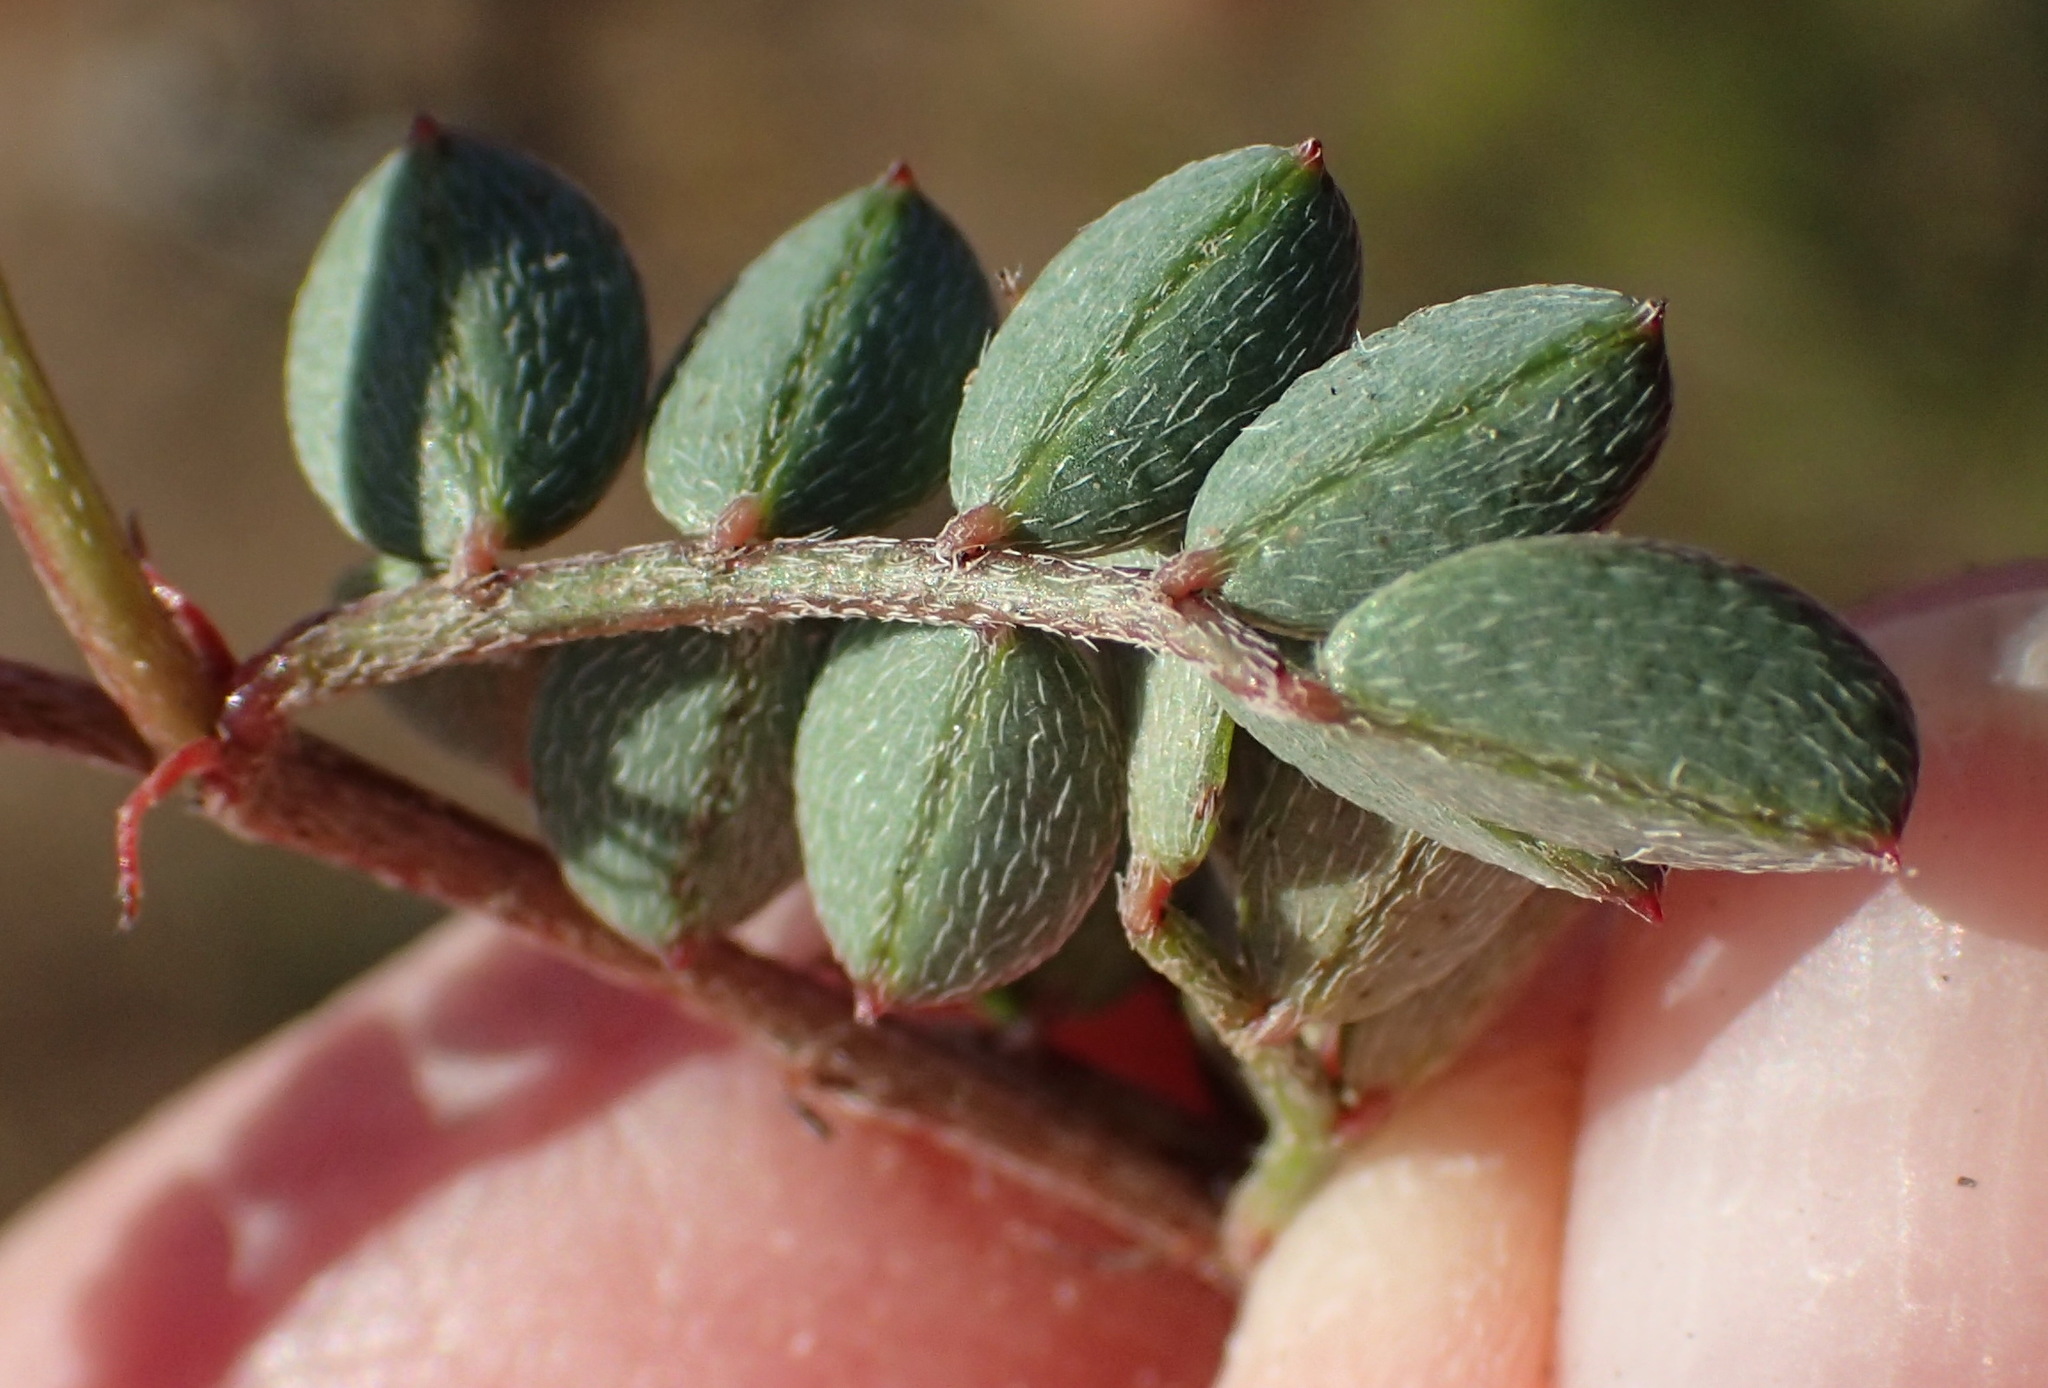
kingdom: Plantae
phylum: Tracheophyta
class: Magnoliopsida
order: Fabales
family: Fabaceae
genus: Indigofera
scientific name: Indigofera declinata
